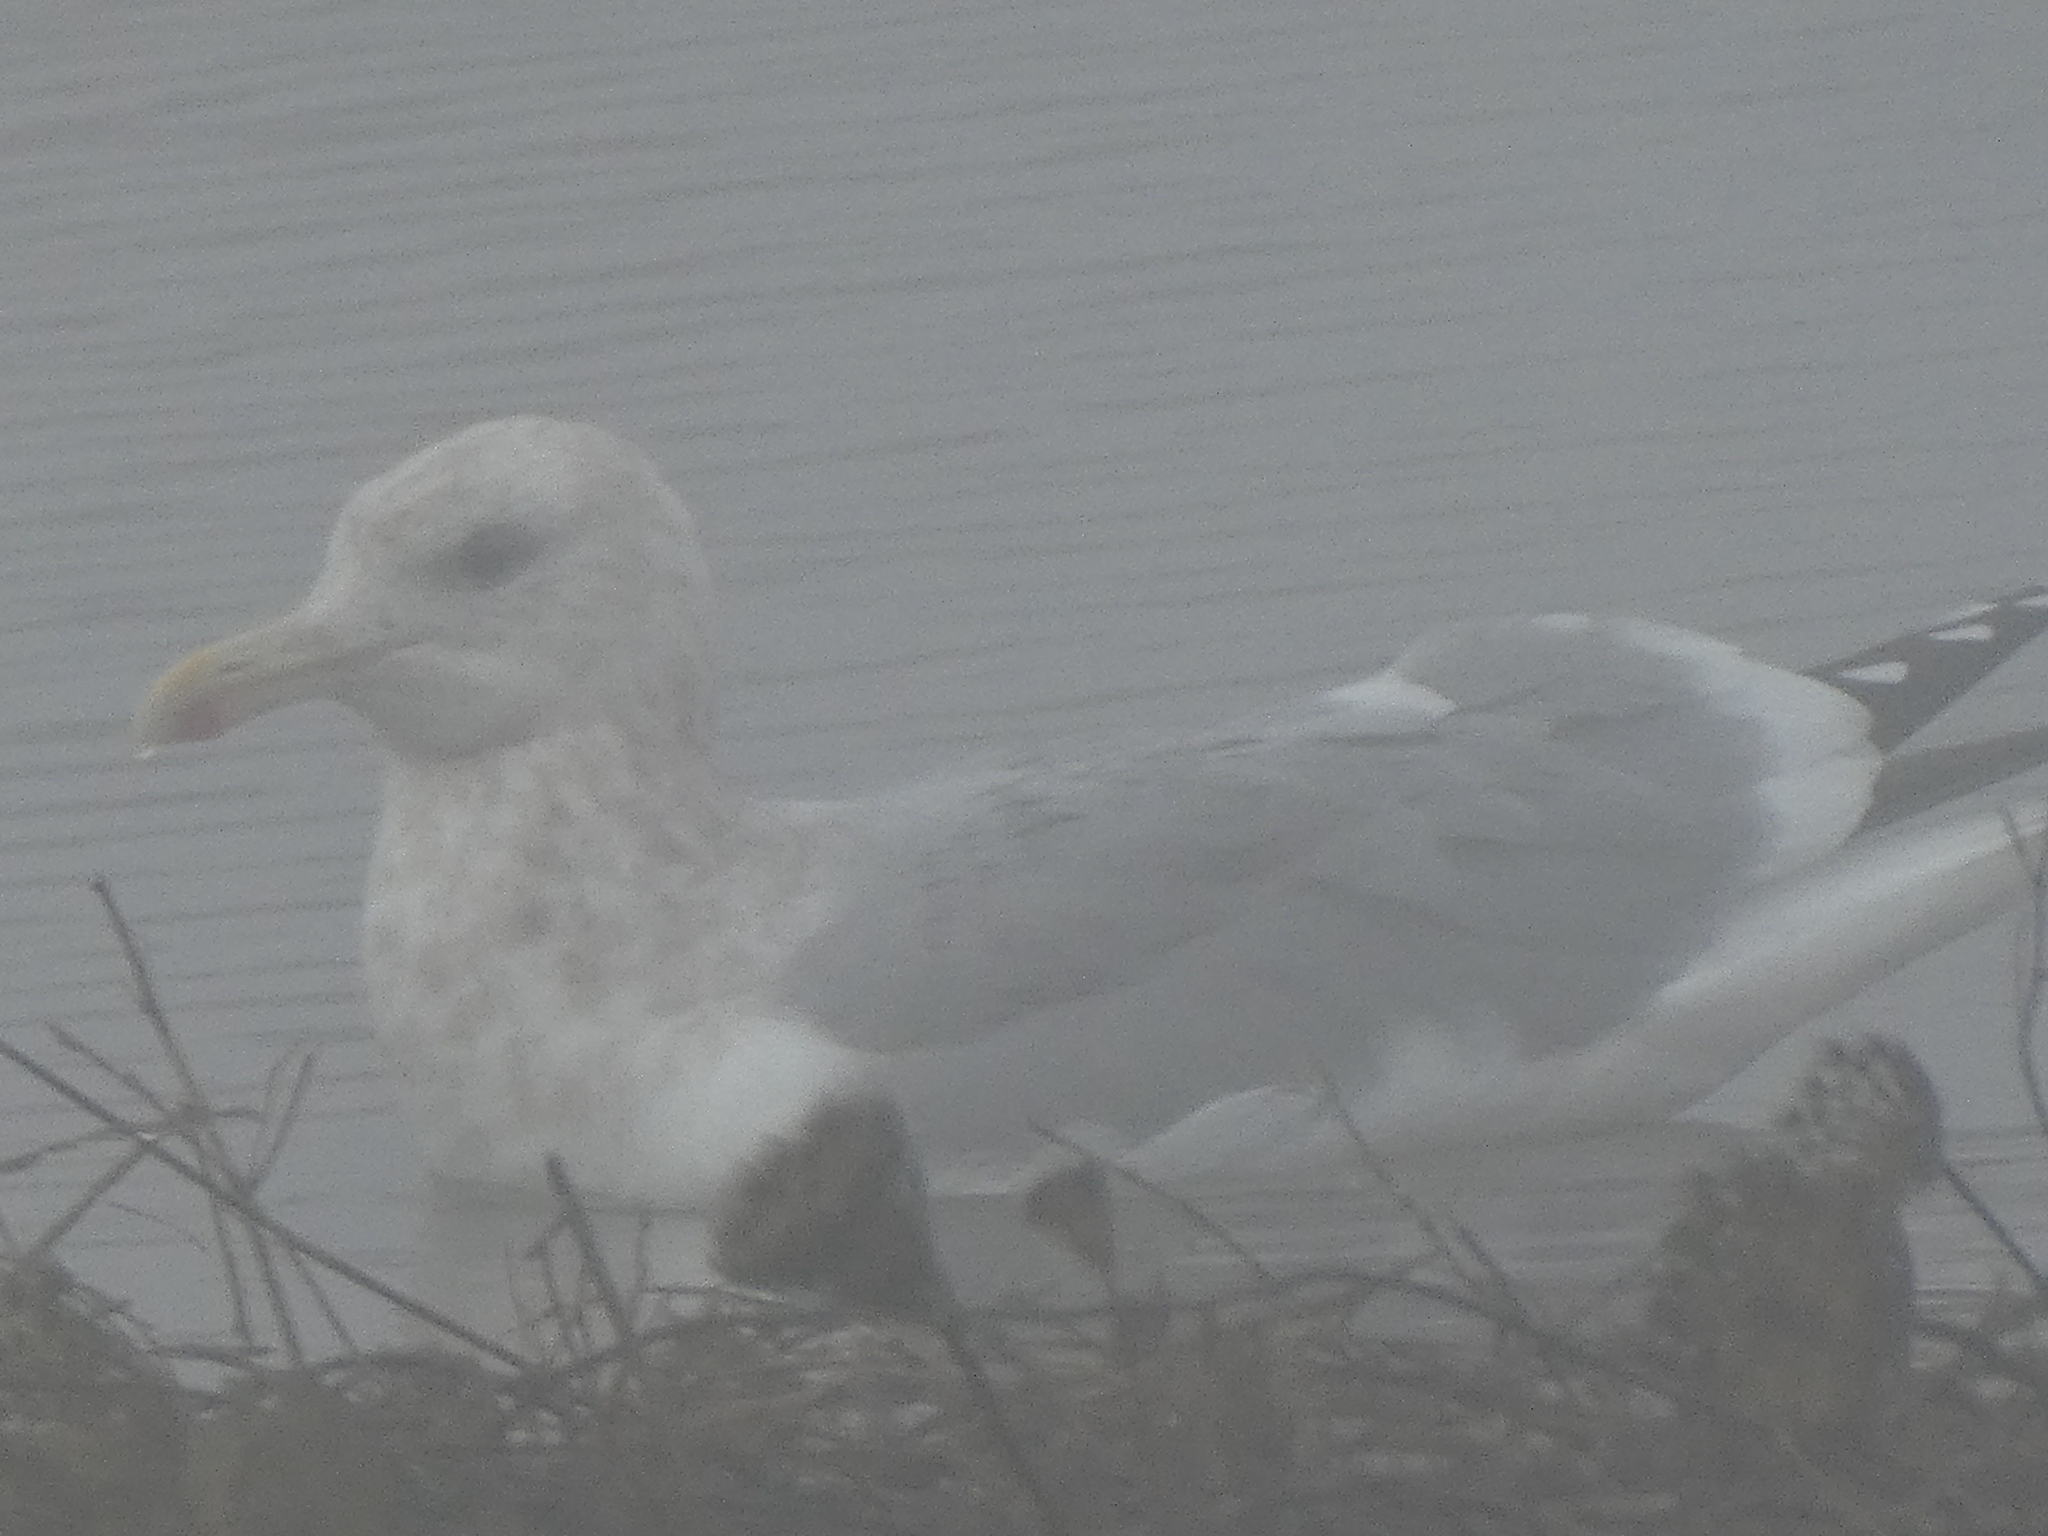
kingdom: Animalia
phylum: Chordata
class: Aves
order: Charadriiformes
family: Laridae
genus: Larus
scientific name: Larus argentatus
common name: Herring gull
